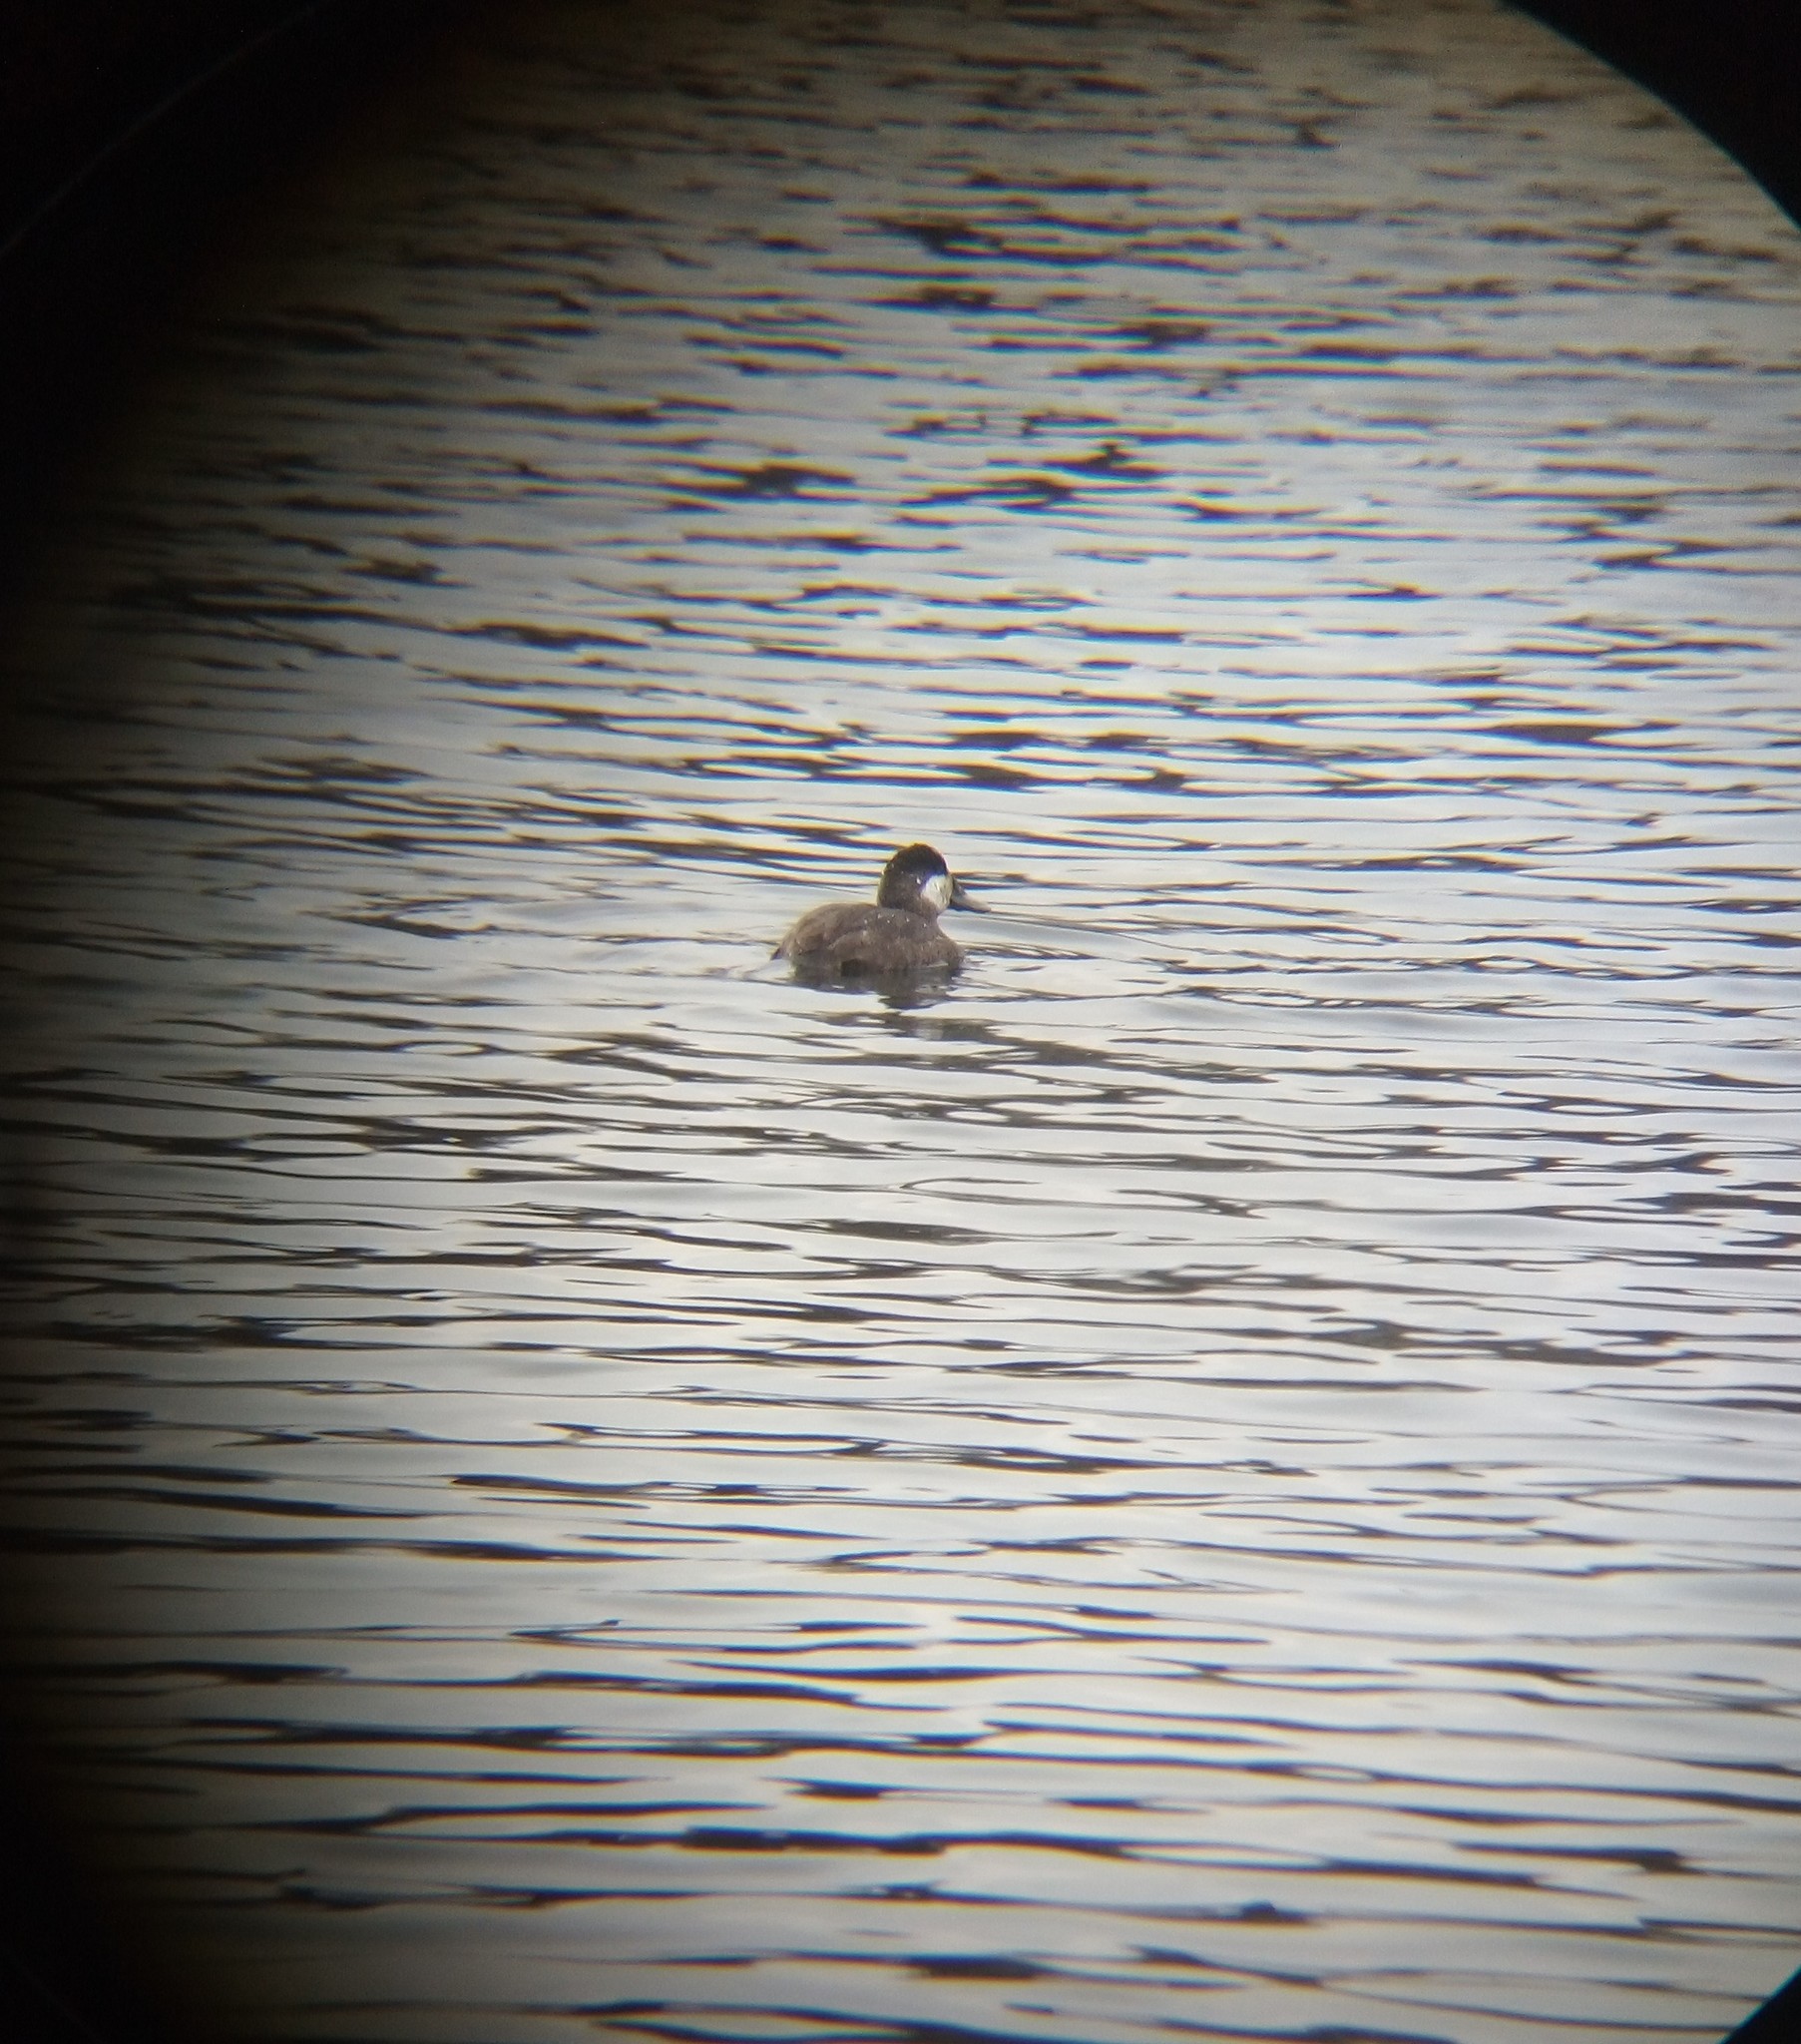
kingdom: Animalia
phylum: Chordata
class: Aves
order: Anseriformes
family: Anatidae
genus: Oxyura
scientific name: Oxyura jamaicensis
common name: Ruddy duck
